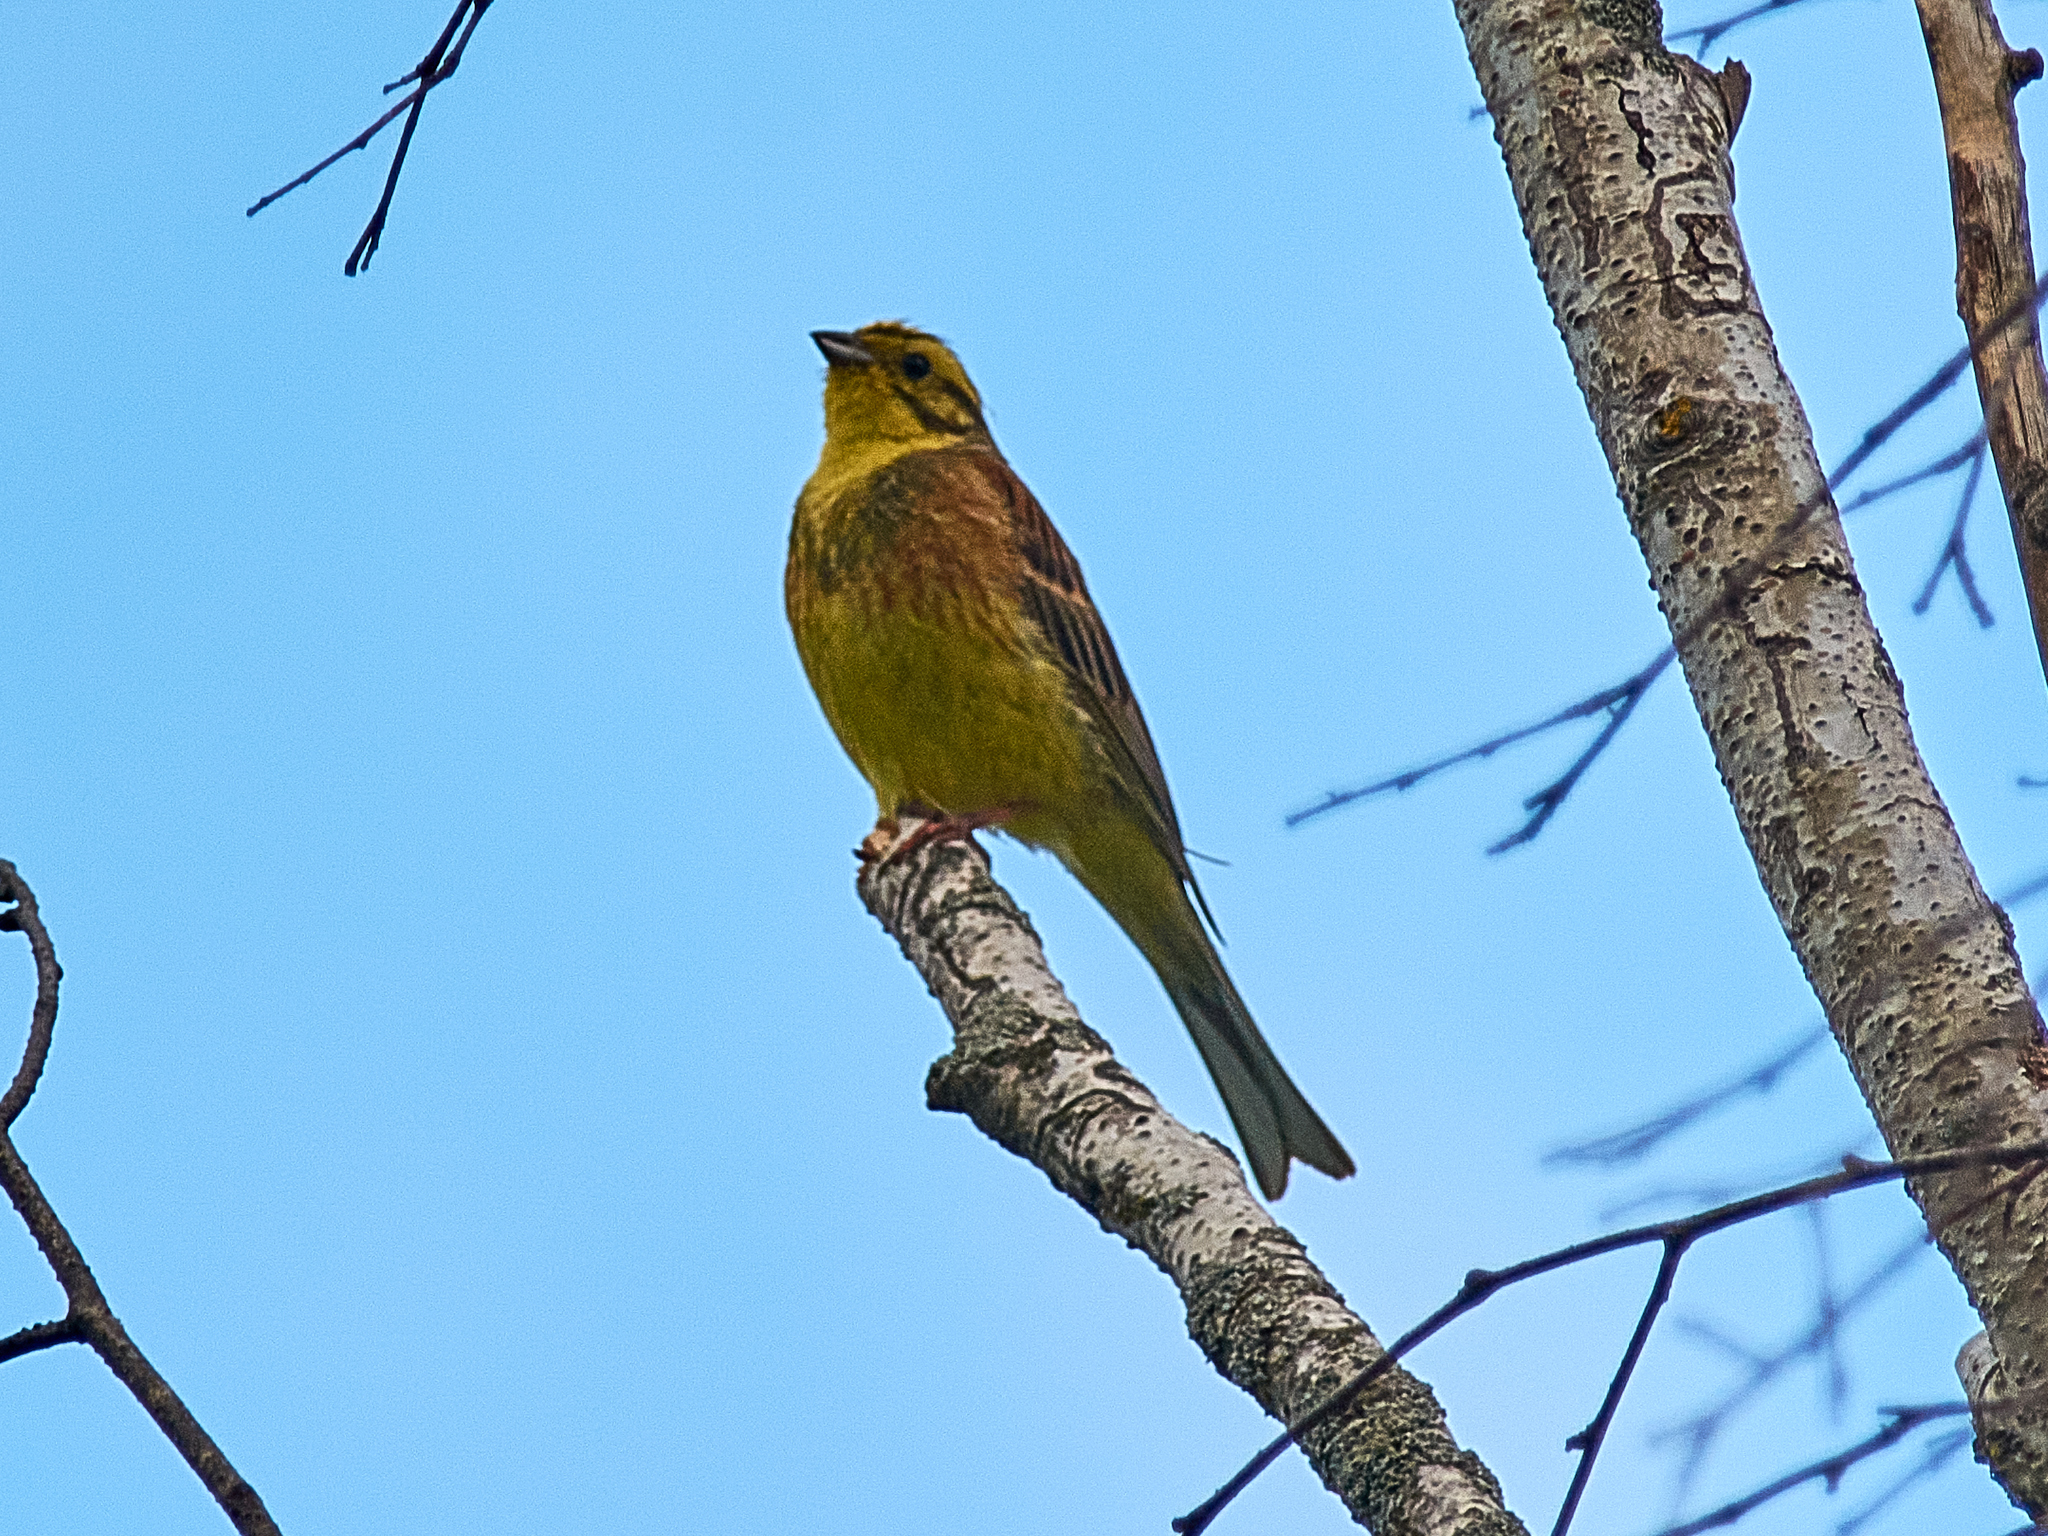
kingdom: Animalia
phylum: Chordata
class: Aves
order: Passeriformes
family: Emberizidae
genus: Emberiza
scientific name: Emberiza citrinella
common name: Yellowhammer
